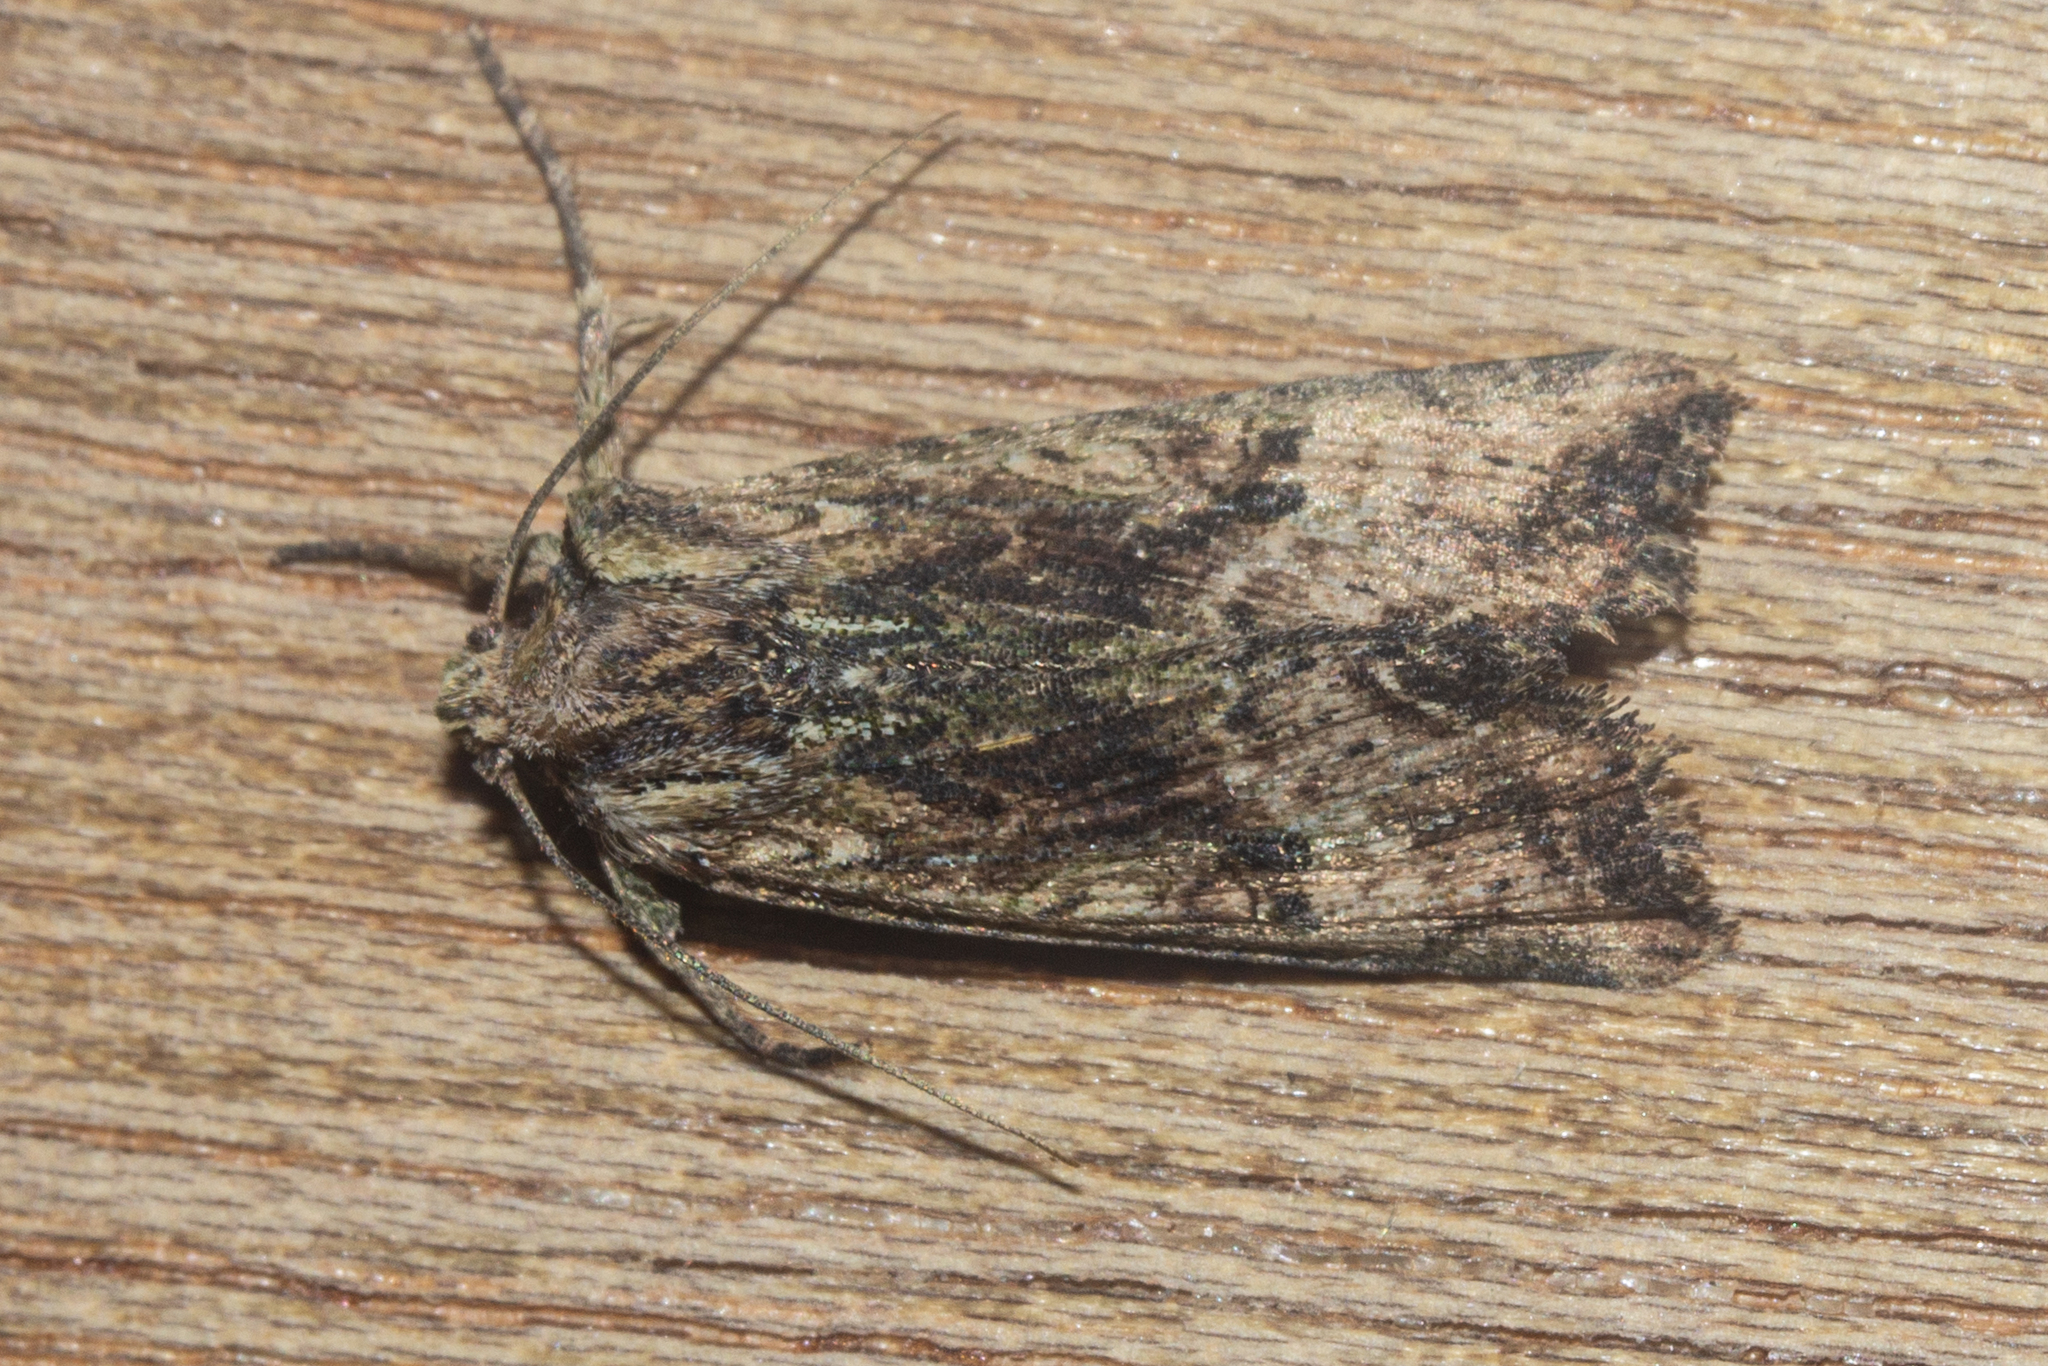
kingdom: Animalia
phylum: Arthropoda
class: Insecta
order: Lepidoptera
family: Noctuidae
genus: Meterana
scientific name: Meterana coeleno
